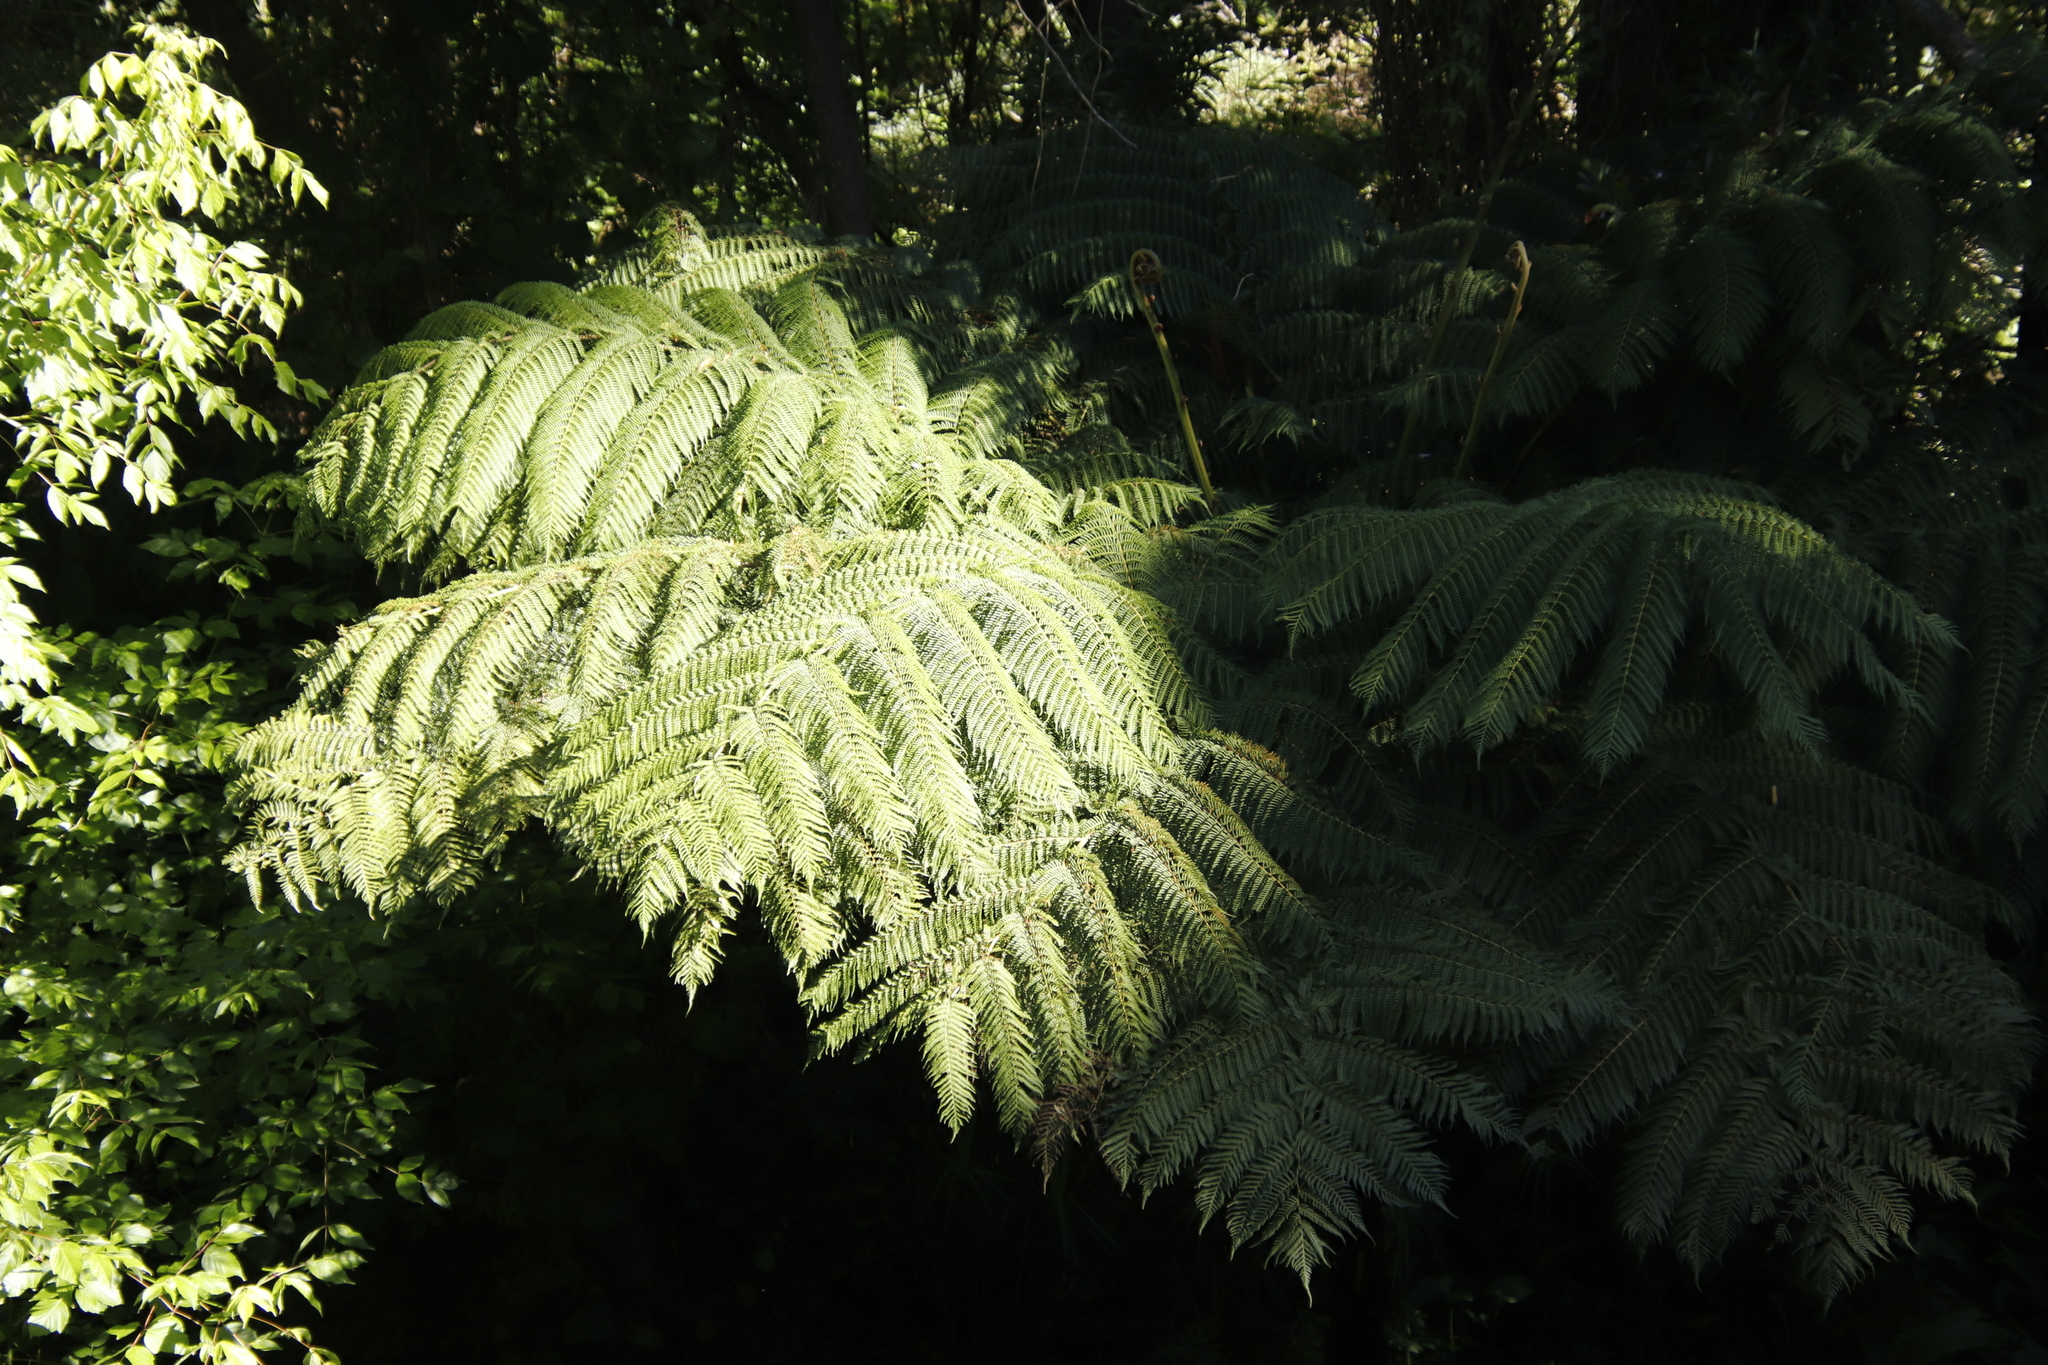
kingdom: Plantae
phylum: Tracheophyta
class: Polypodiopsida
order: Cyatheales
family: Cyatheaceae
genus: Sphaeropteris
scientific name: Sphaeropteris cooperi
